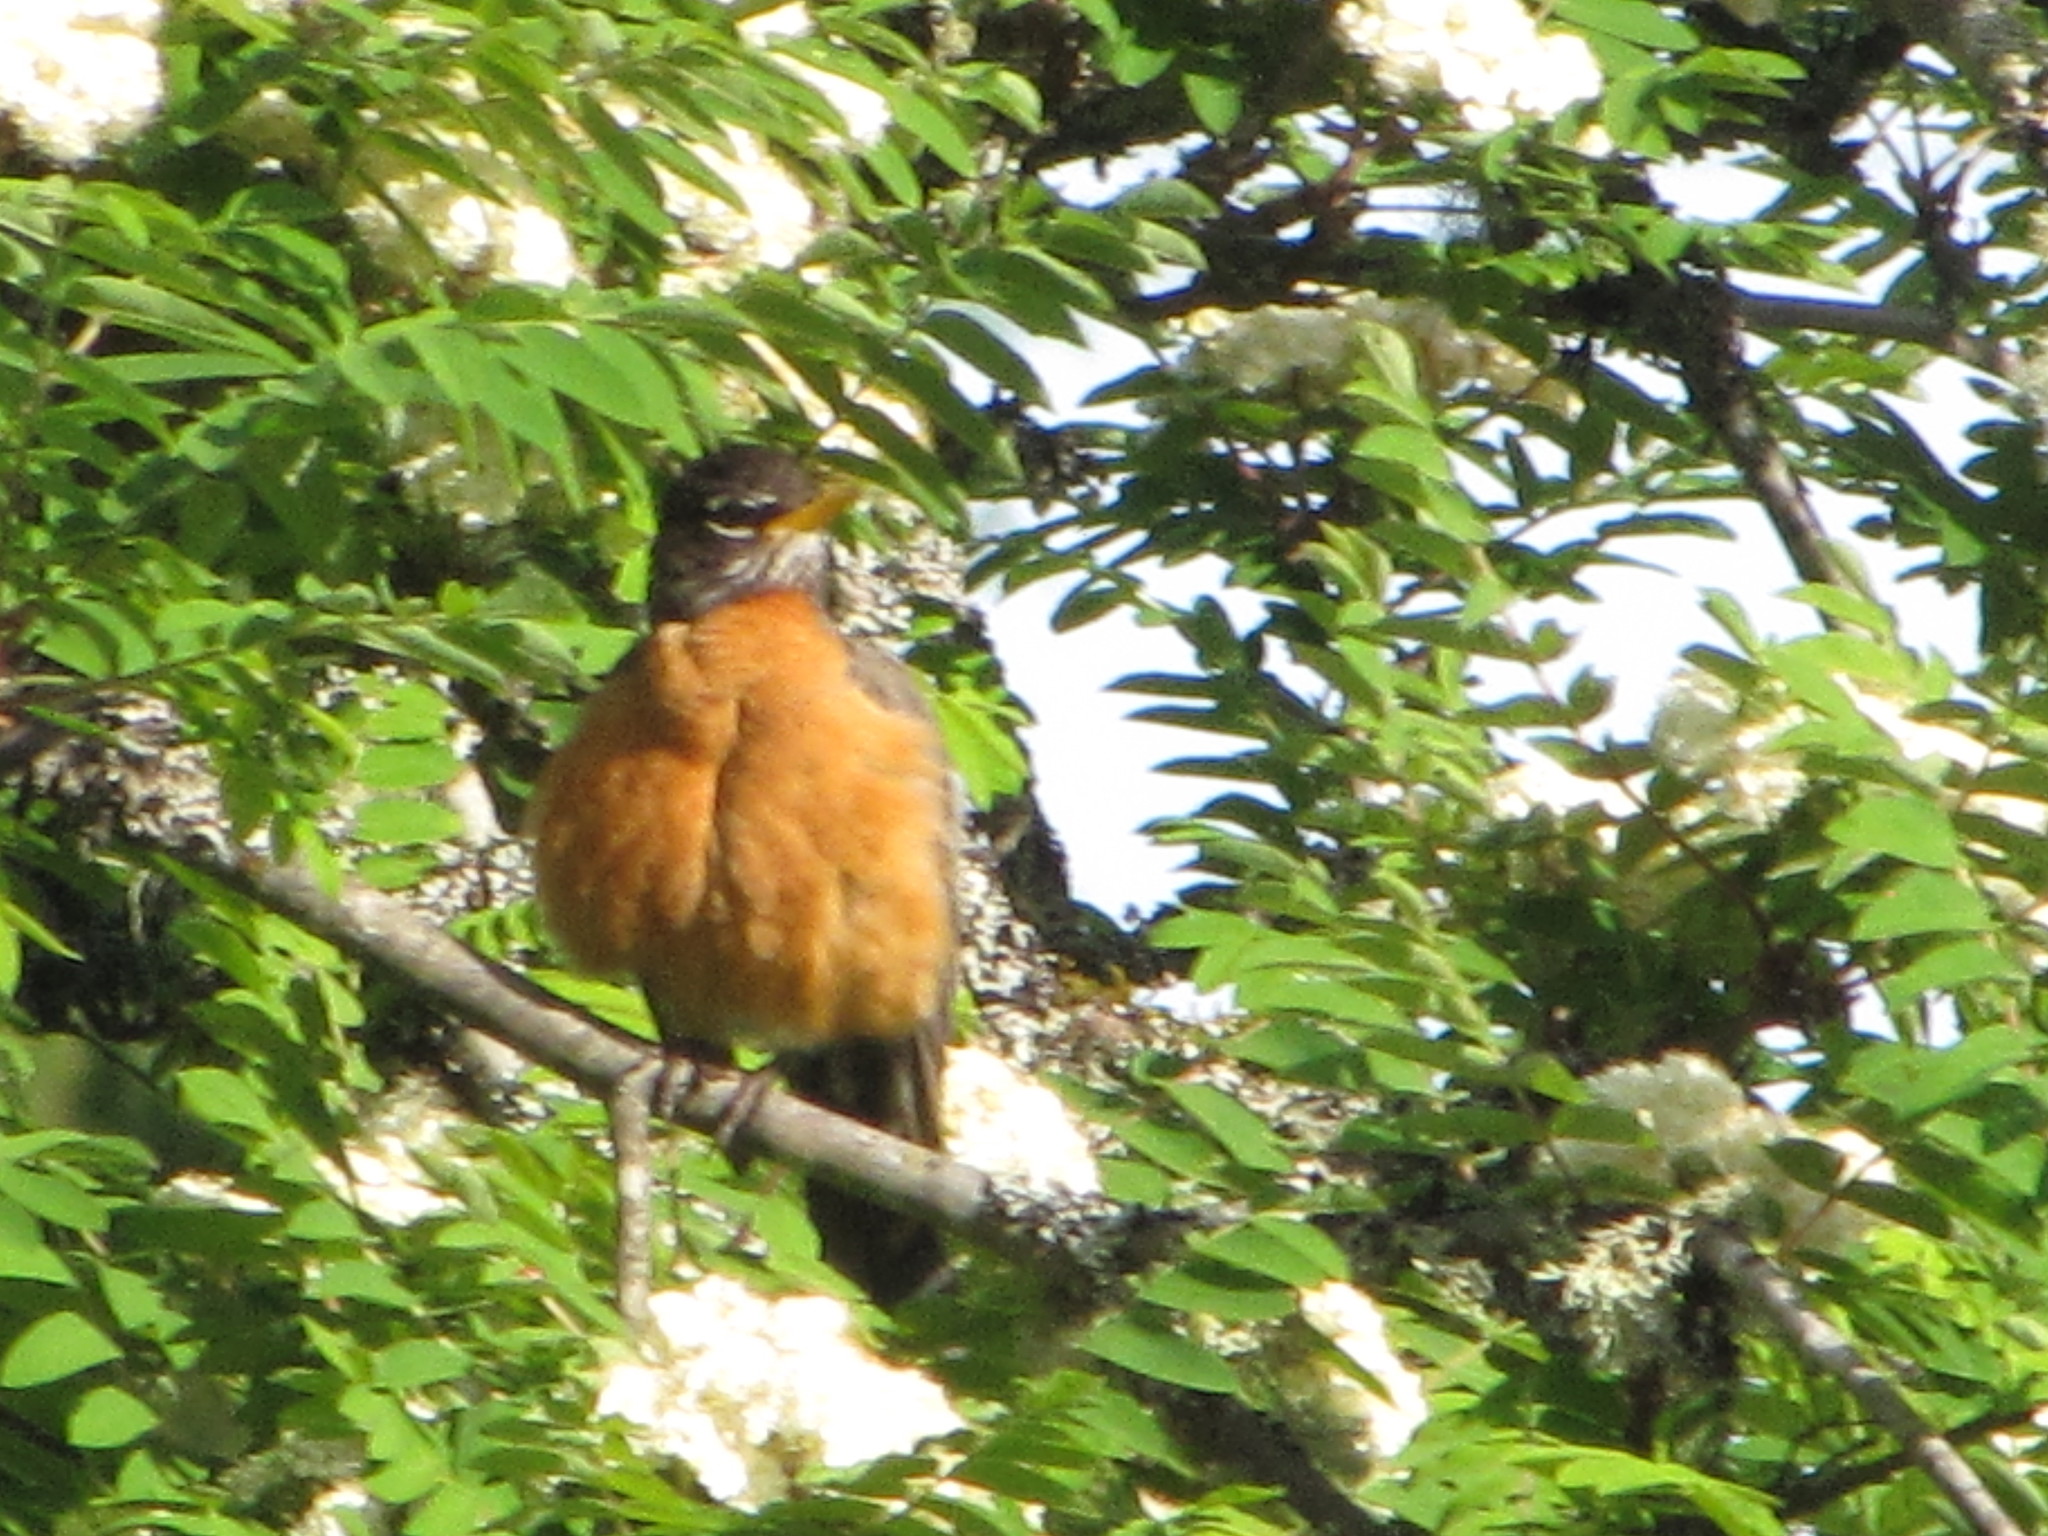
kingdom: Animalia
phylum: Chordata
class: Aves
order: Passeriformes
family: Turdidae
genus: Turdus
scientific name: Turdus migratorius
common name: American robin
